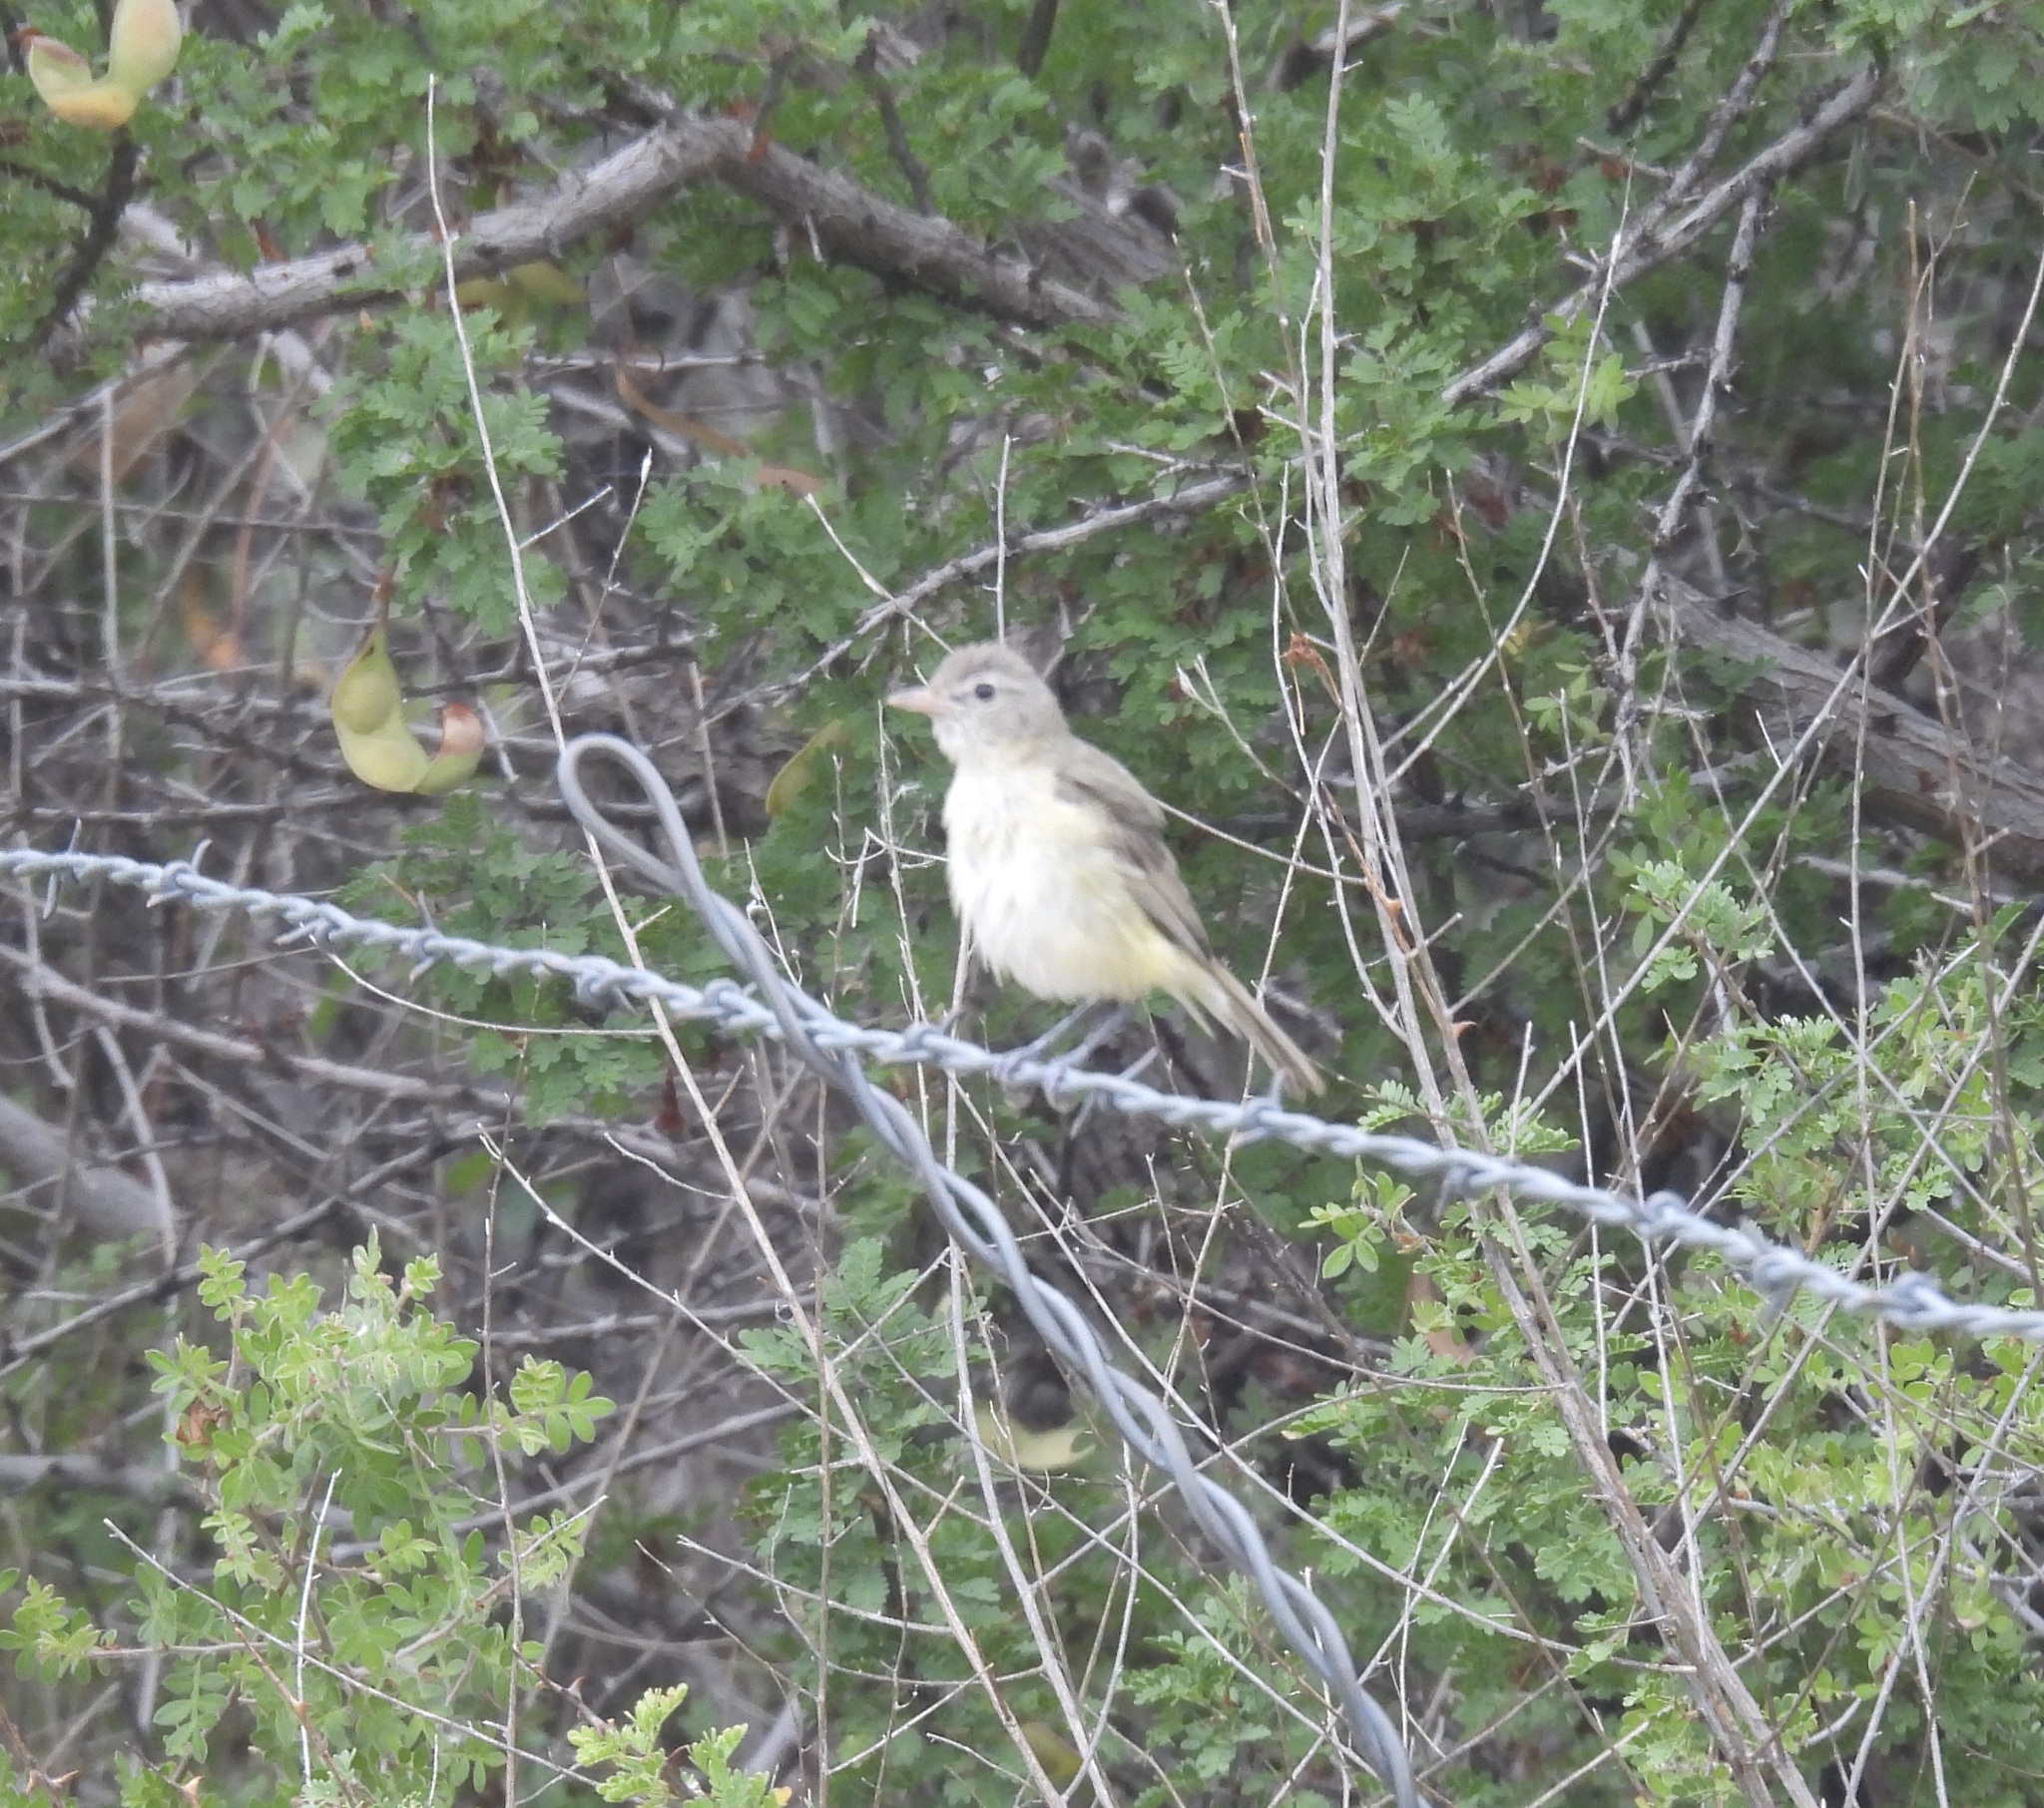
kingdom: Animalia
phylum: Chordata
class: Aves
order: Passeriformes
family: Vireonidae
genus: Vireo
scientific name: Vireo bellii
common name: Bell's vireo
